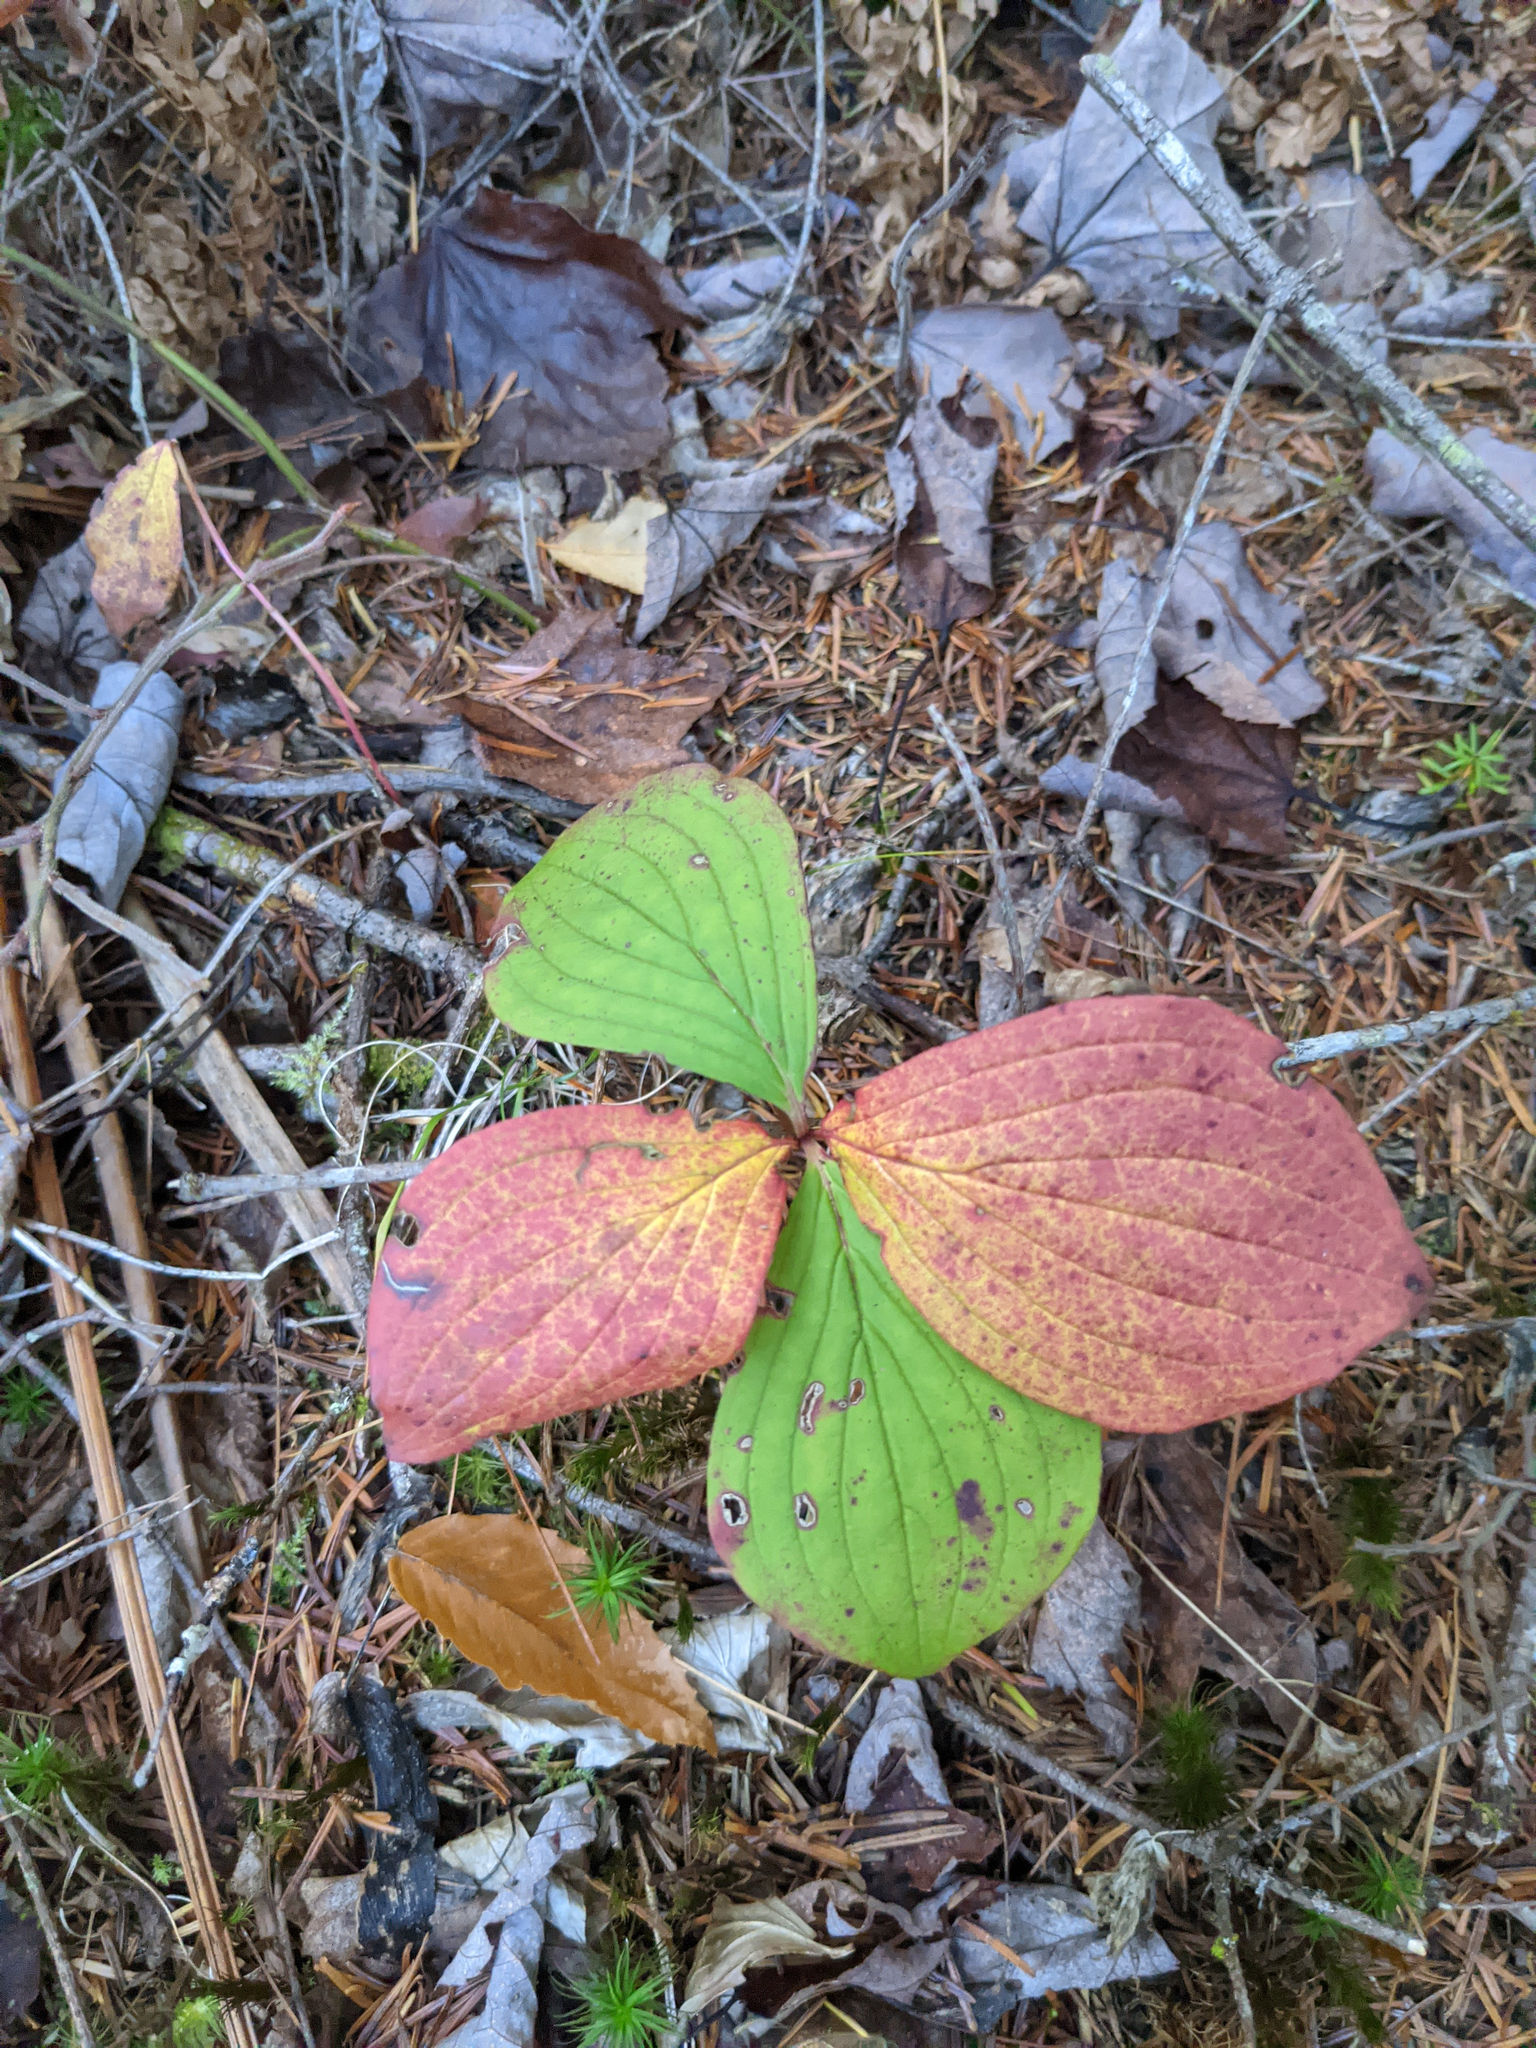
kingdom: Plantae
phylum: Tracheophyta
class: Magnoliopsida
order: Cornales
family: Cornaceae
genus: Cornus
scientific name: Cornus canadensis
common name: Creeping dogwood
